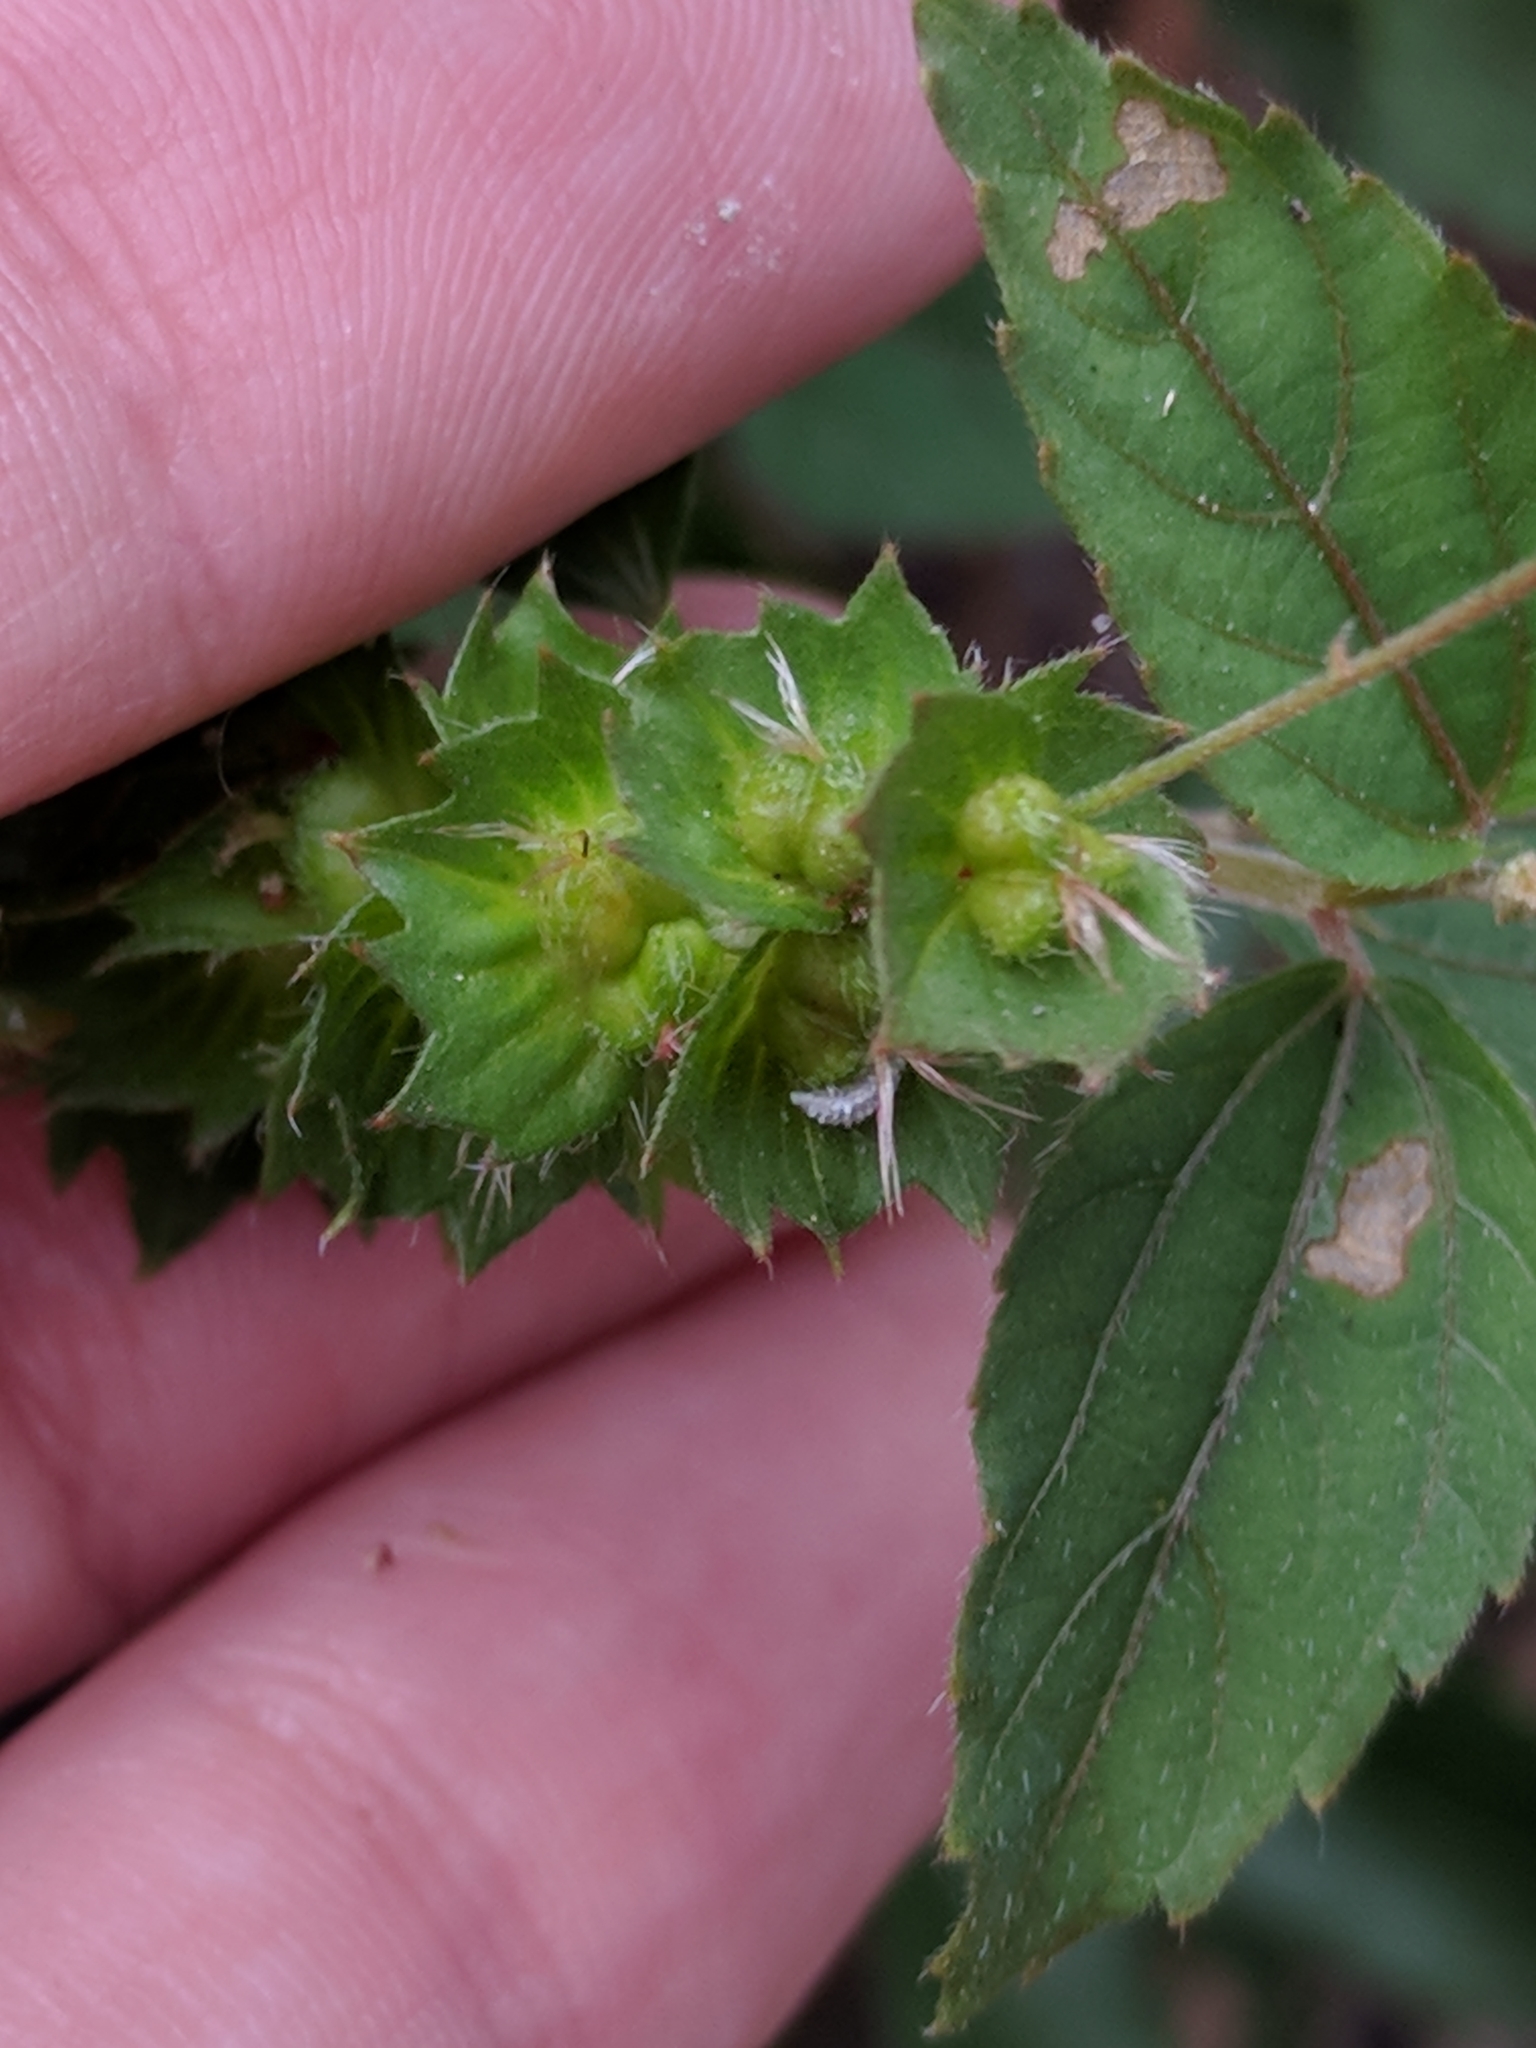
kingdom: Plantae
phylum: Tracheophyta
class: Magnoliopsida
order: Malpighiales
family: Euphorbiaceae
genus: Acalypha
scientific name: Acalypha phleoides
